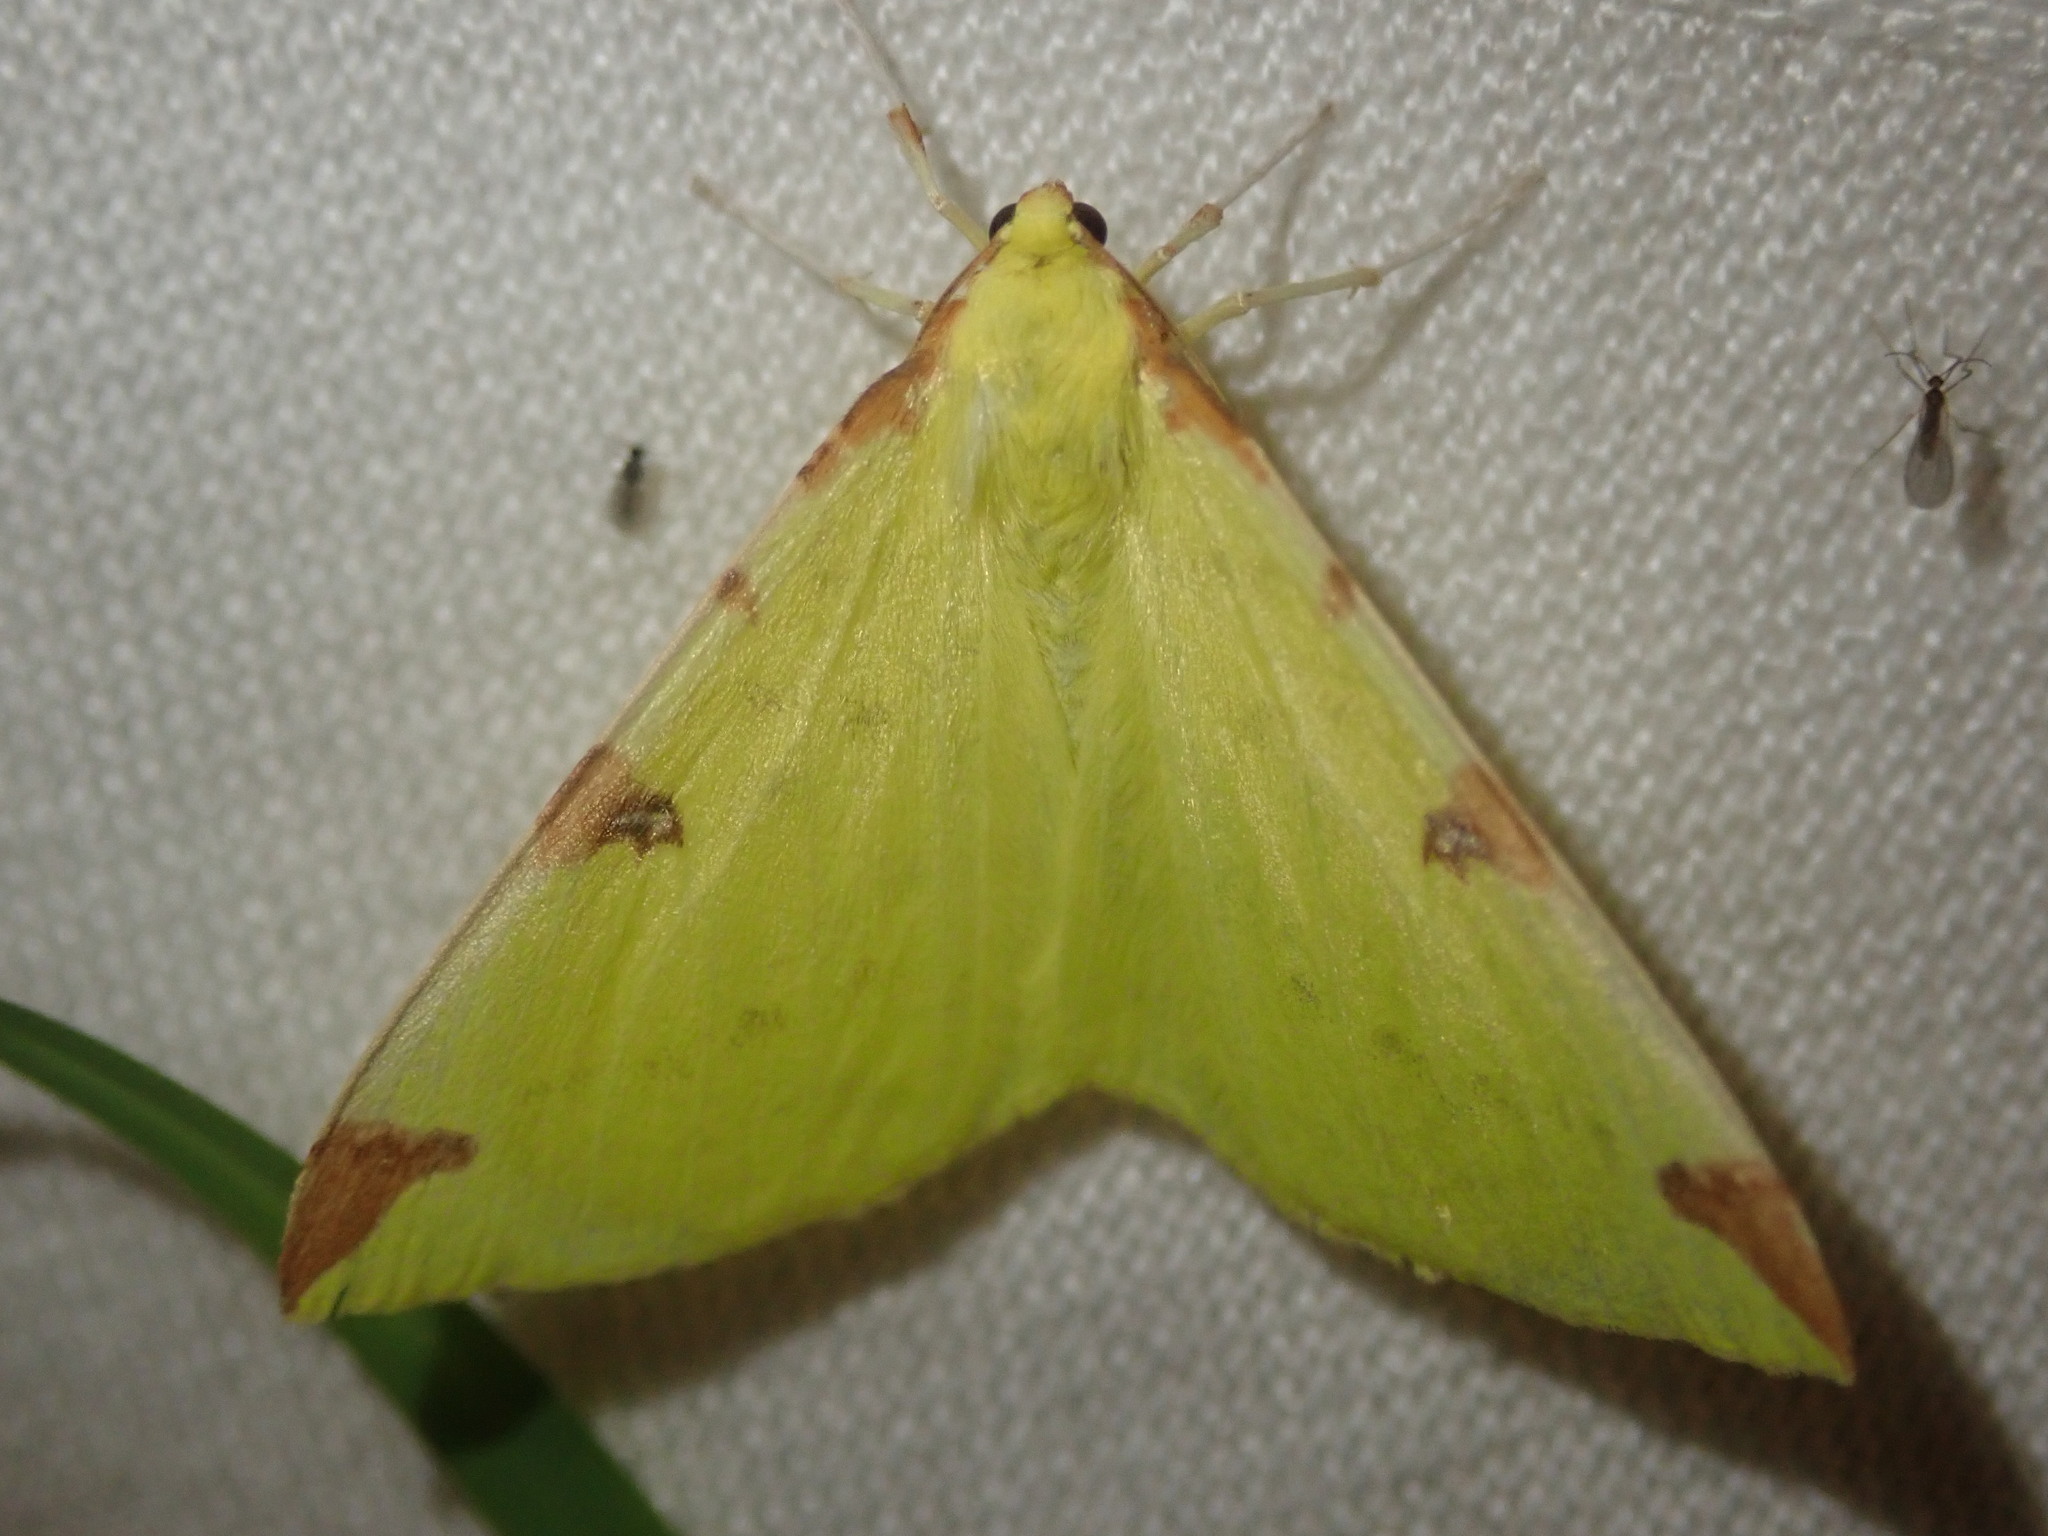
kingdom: Animalia
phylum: Arthropoda
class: Insecta
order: Lepidoptera
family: Geometridae
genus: Opisthograptis
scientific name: Opisthograptis luteolata
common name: Brimstone moth
